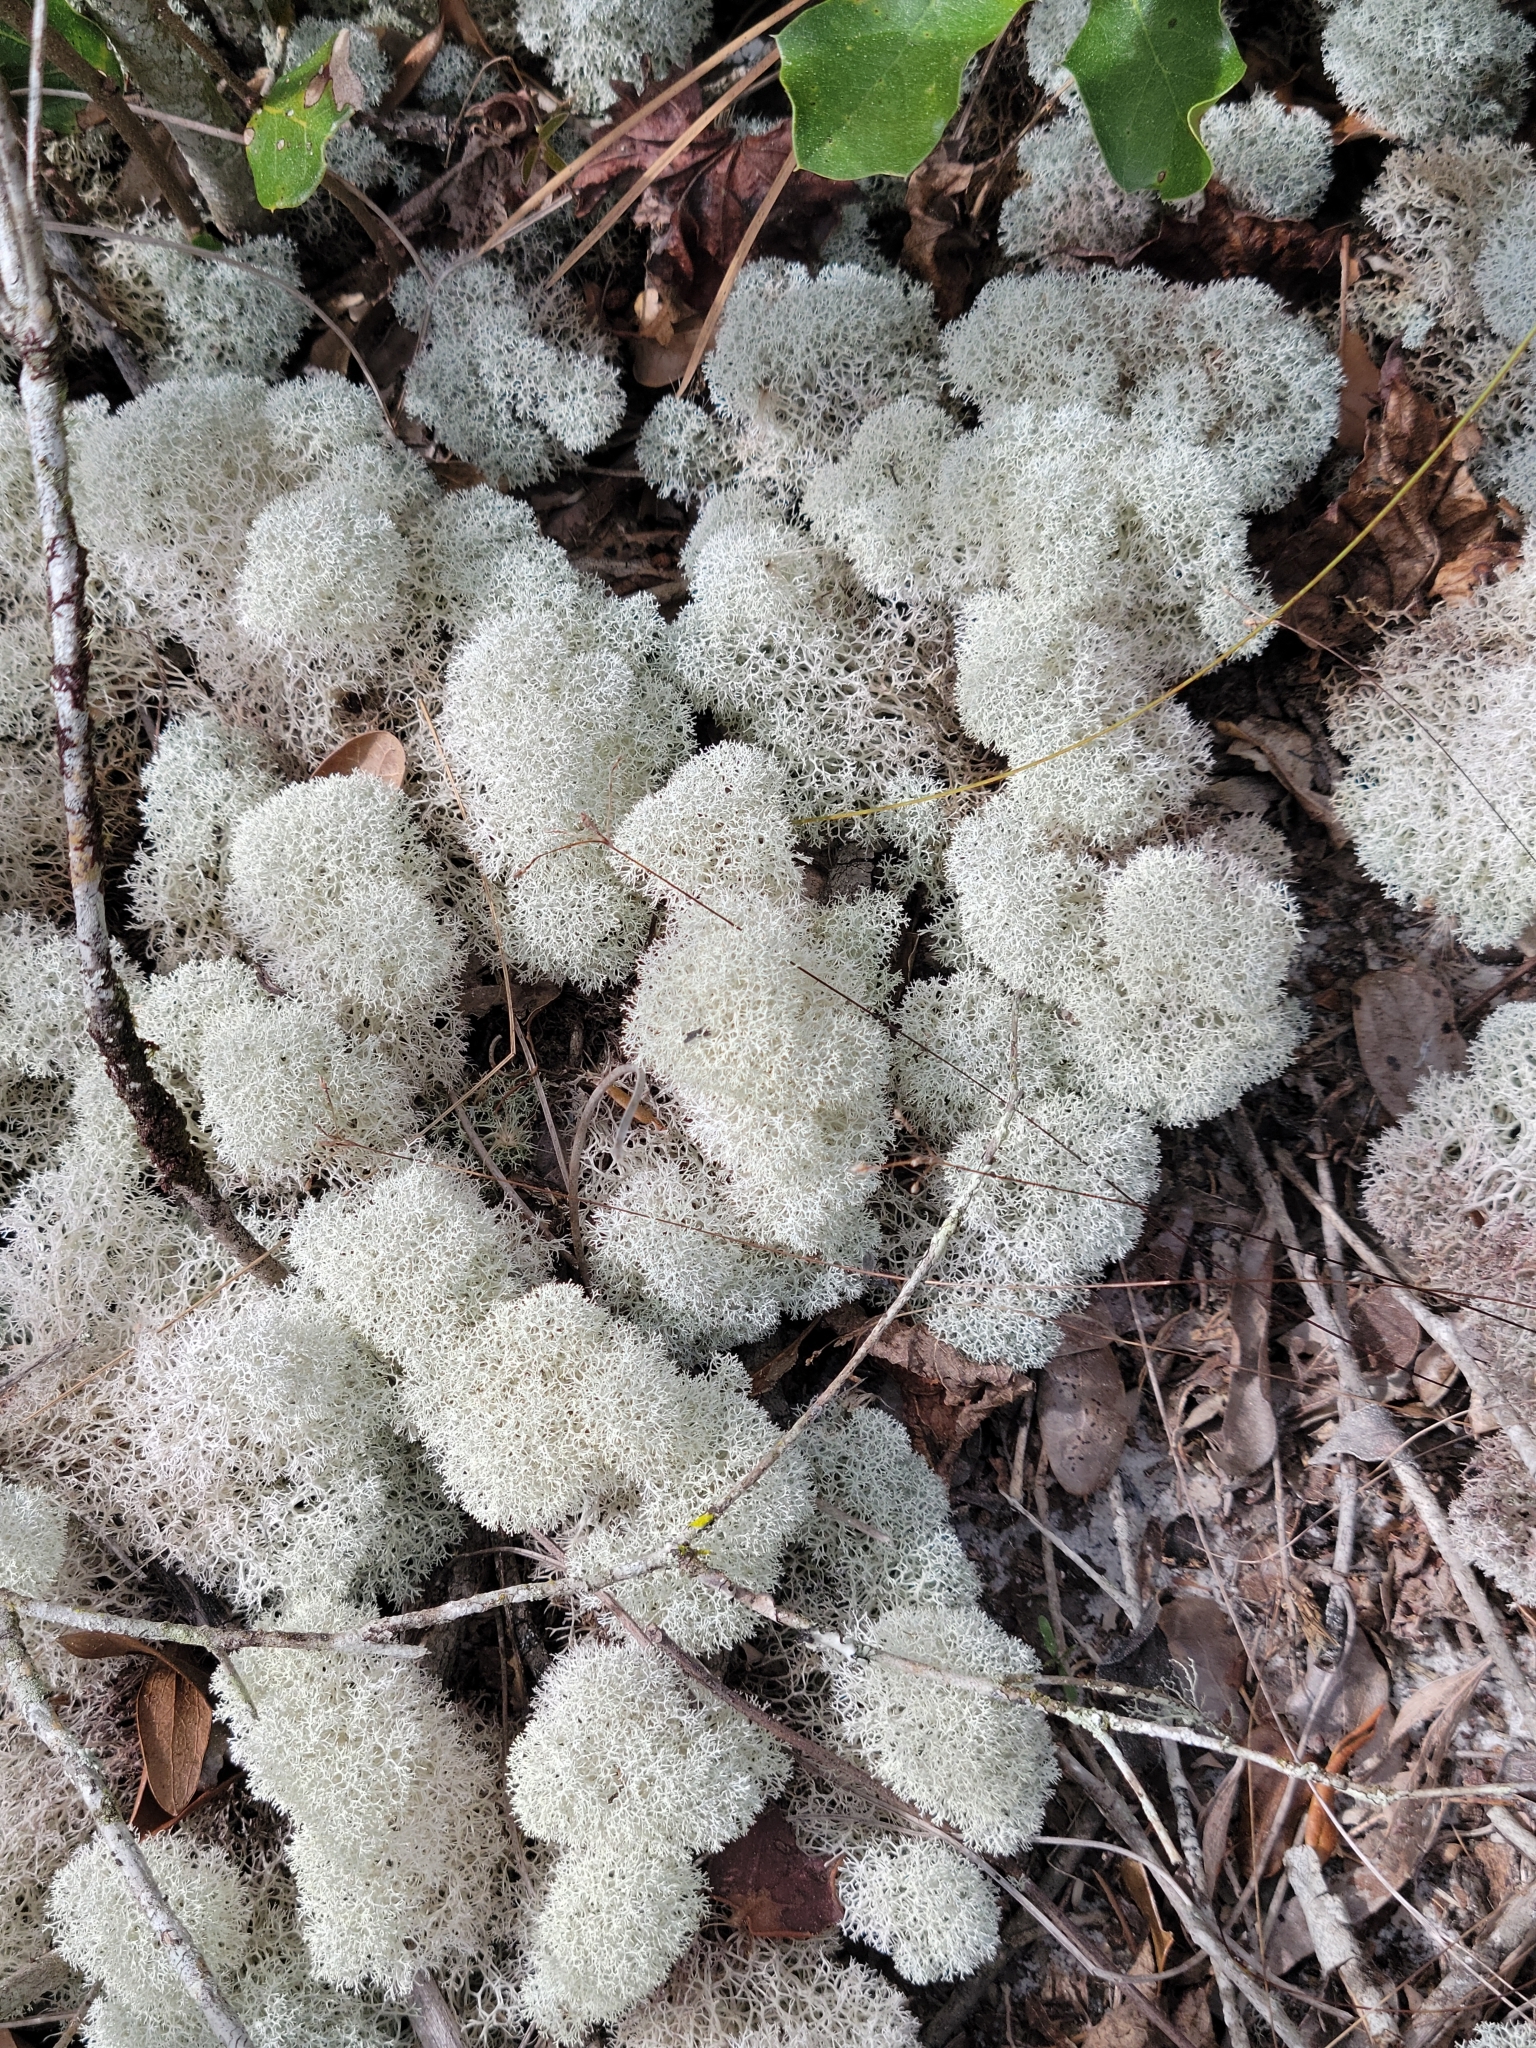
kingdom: Fungi
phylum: Ascomycota
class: Lecanoromycetes
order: Lecanorales
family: Cladoniaceae
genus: Cladonia
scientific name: Cladonia evansii
